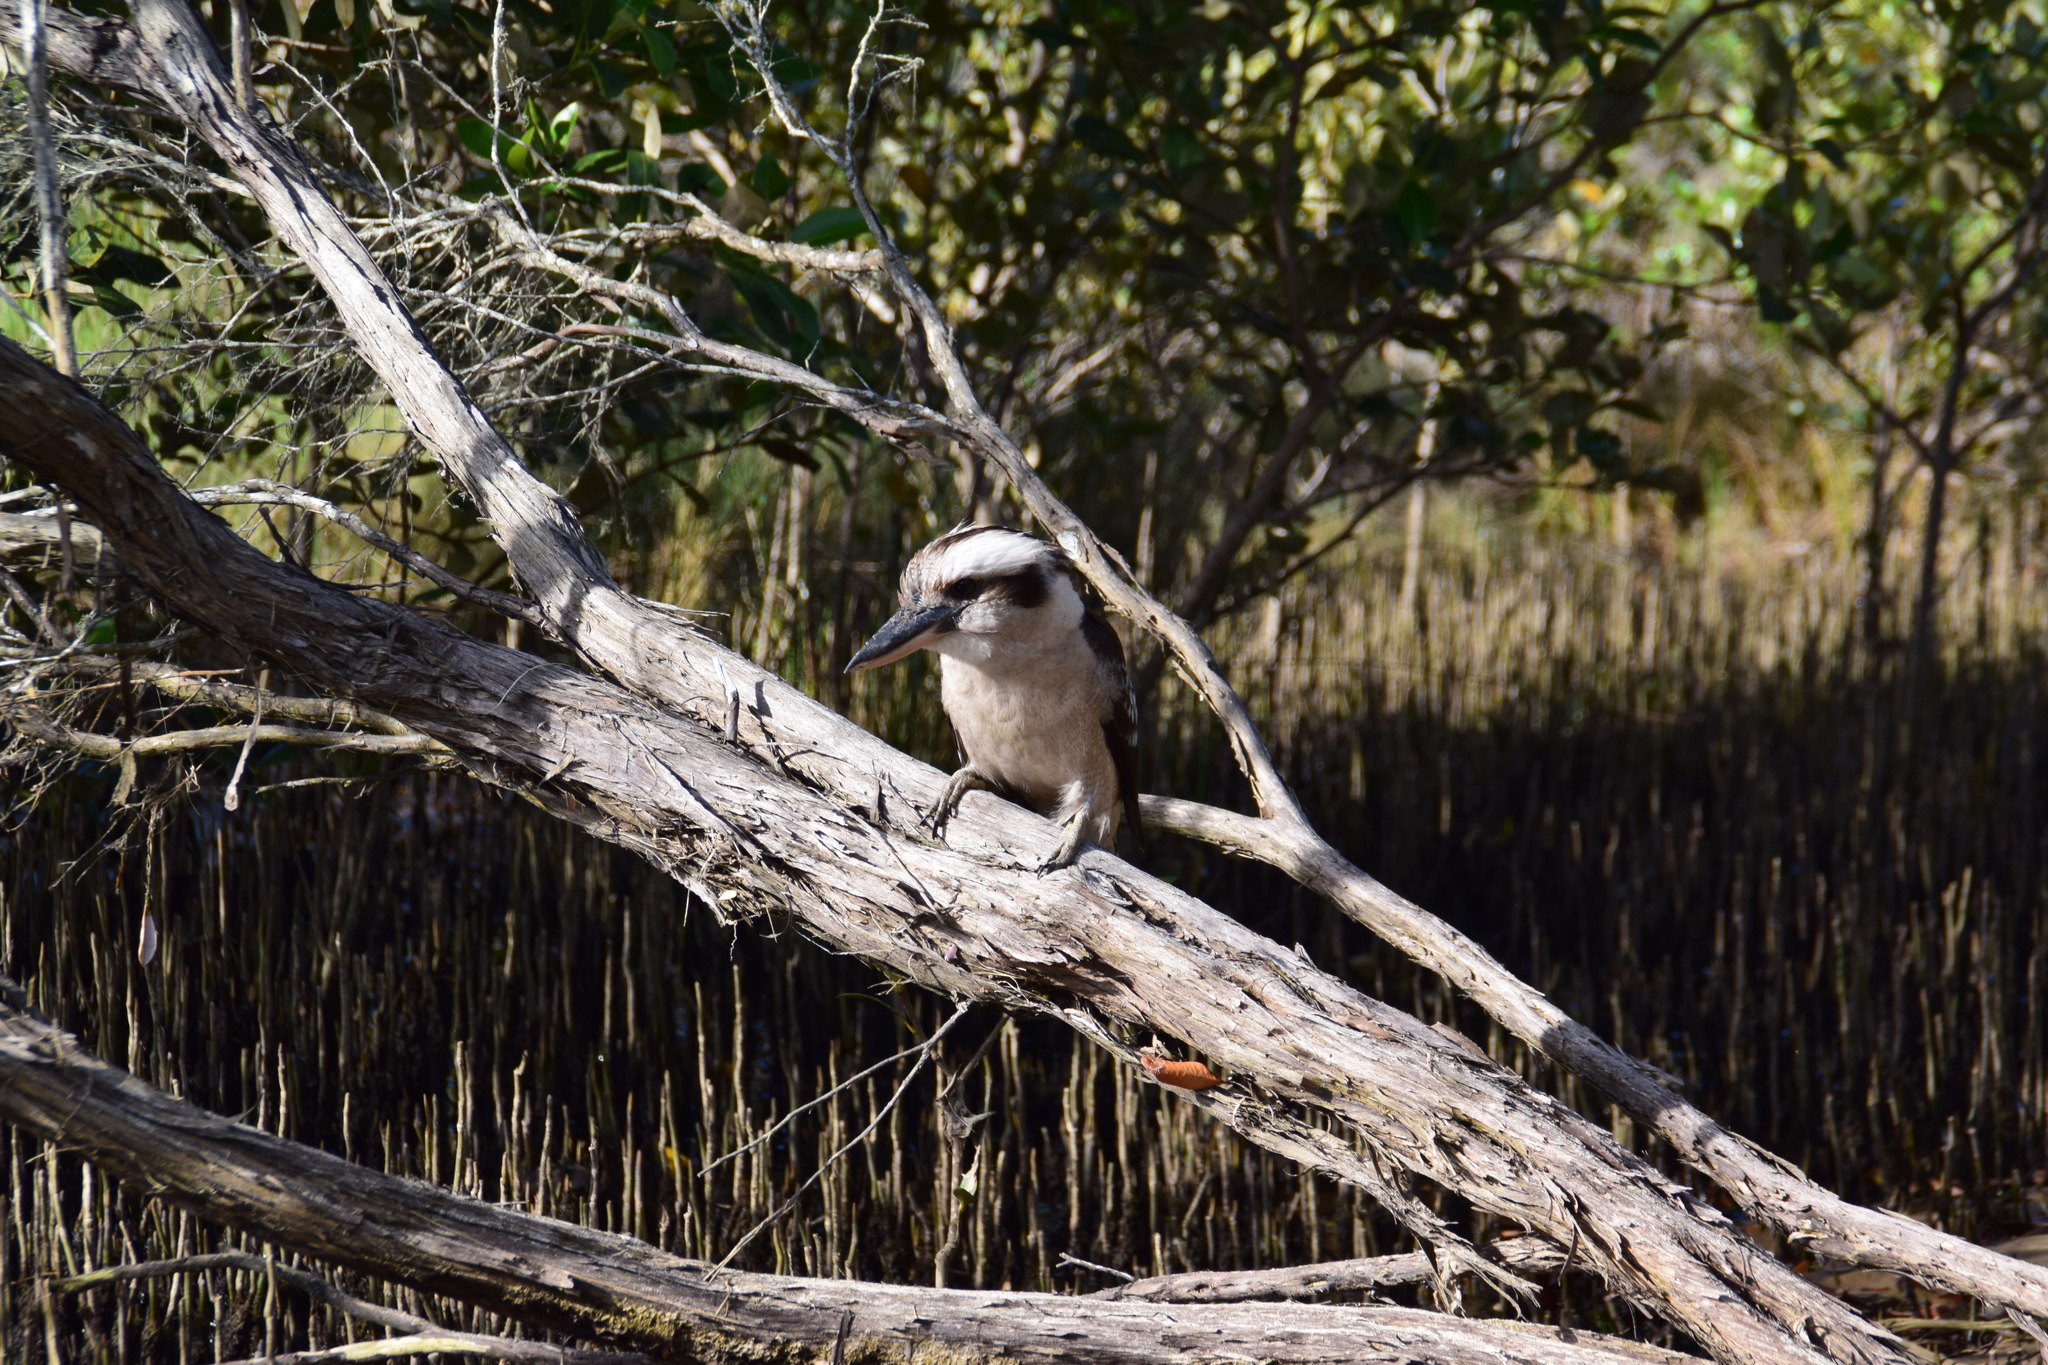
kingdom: Animalia
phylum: Chordata
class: Aves
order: Coraciiformes
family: Alcedinidae
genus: Dacelo
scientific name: Dacelo novaeguineae
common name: Laughing kookaburra
